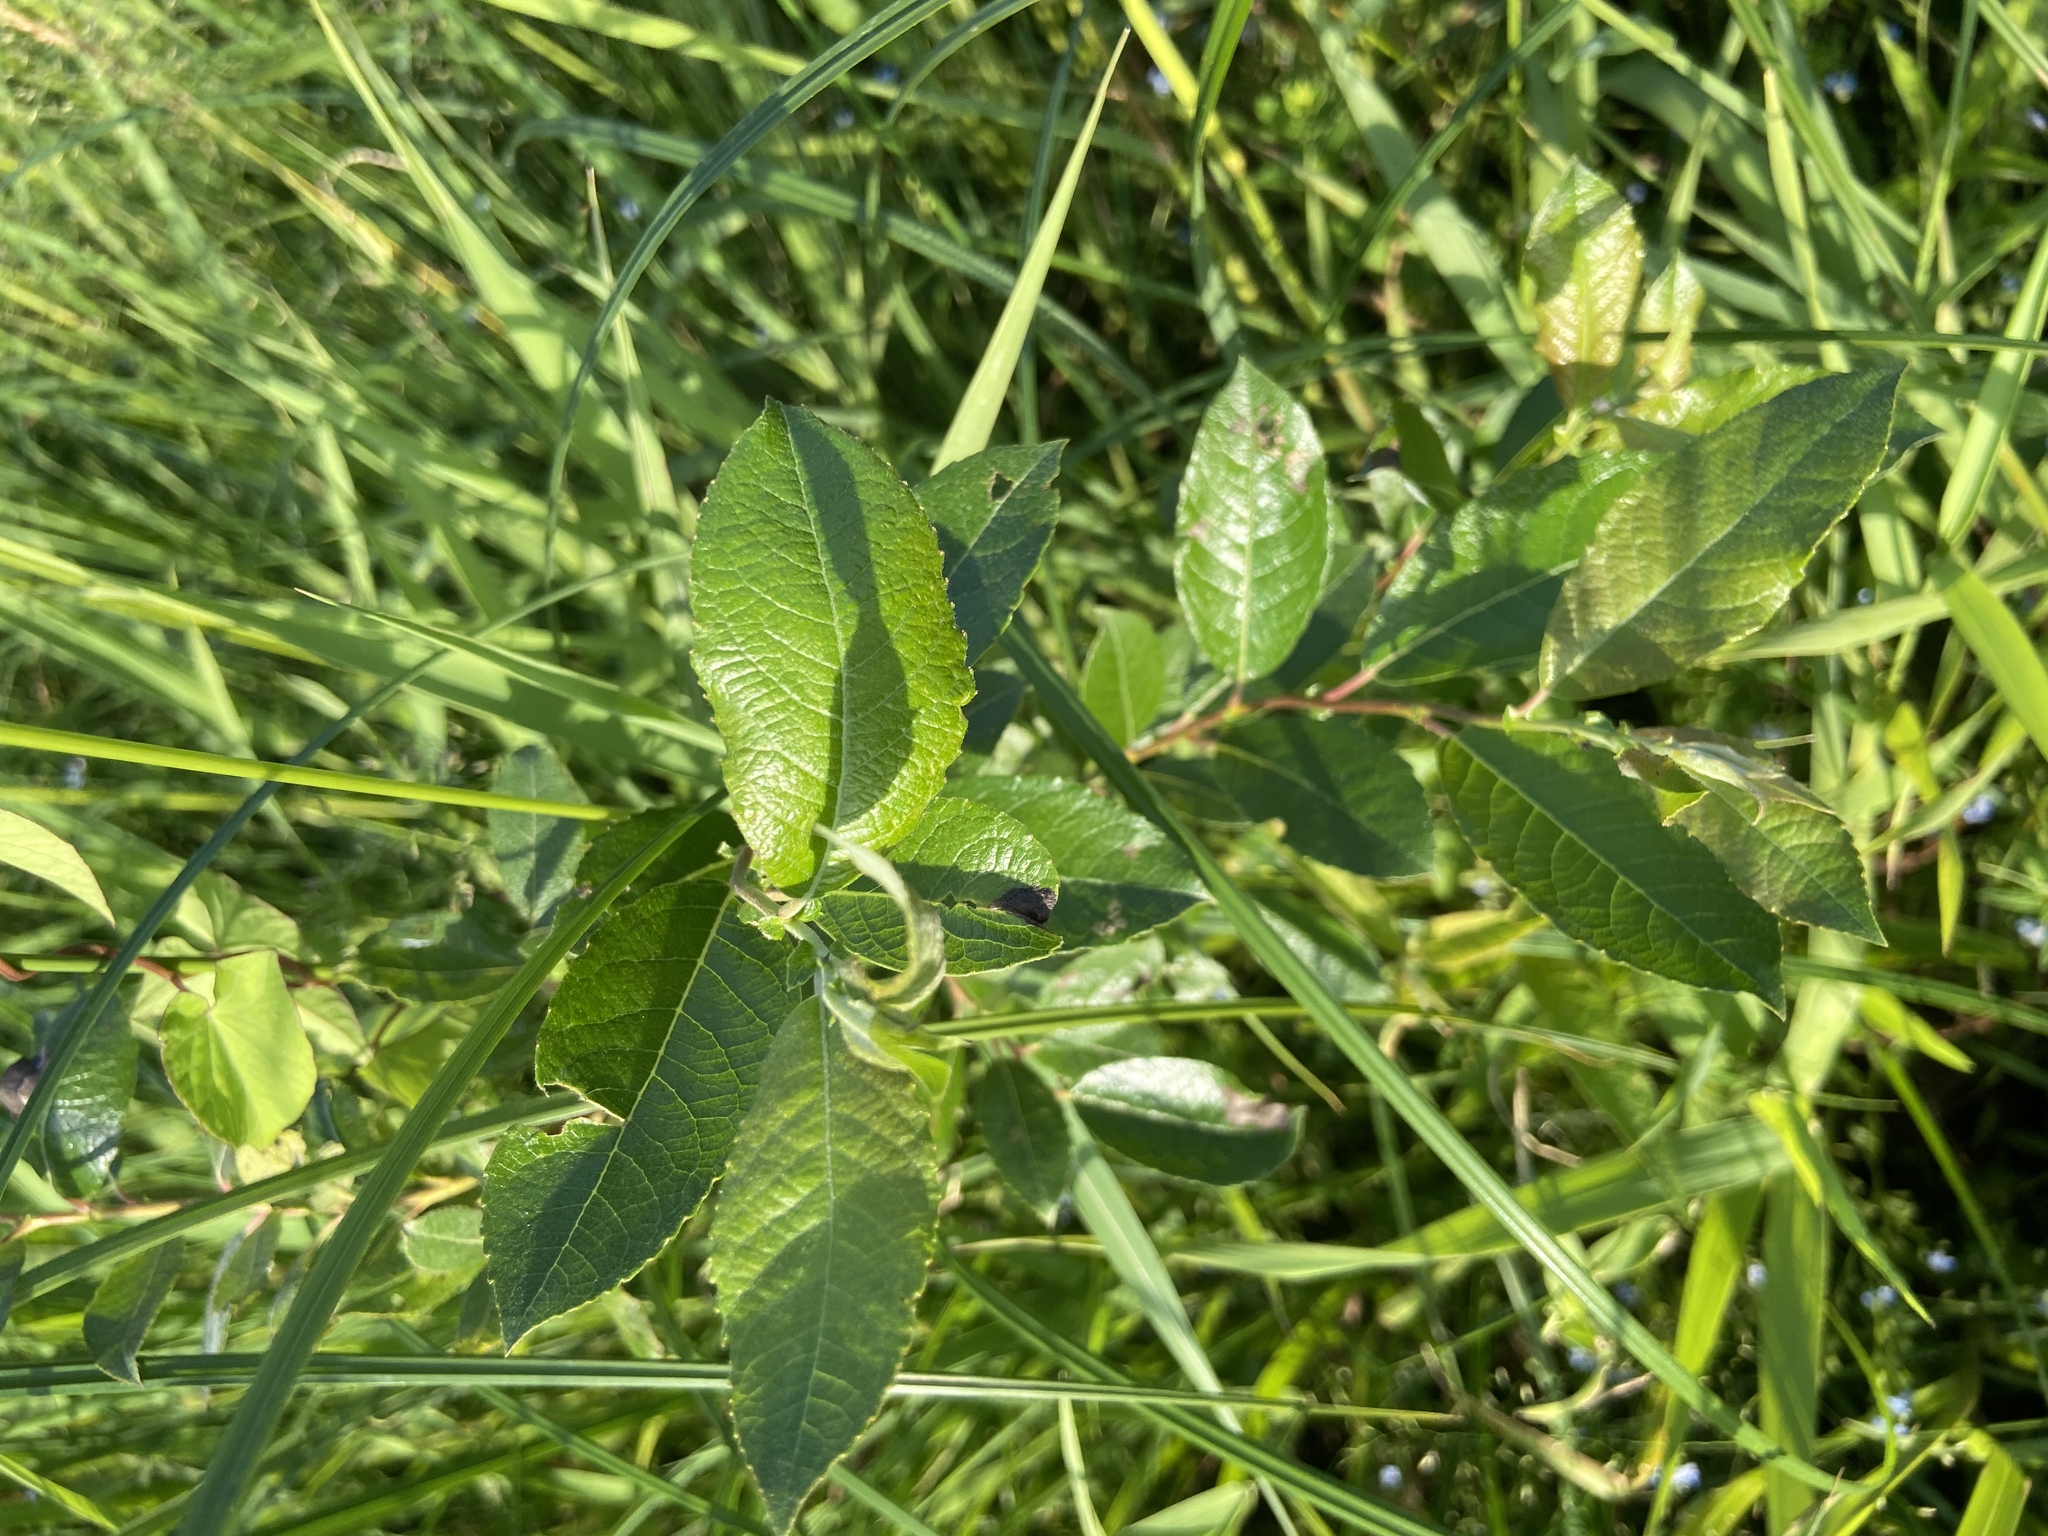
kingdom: Plantae
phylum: Tracheophyta
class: Magnoliopsida
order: Malpighiales
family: Salicaceae
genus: Salix
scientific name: Salix myrsinifolia
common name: Dark-leaved willow
